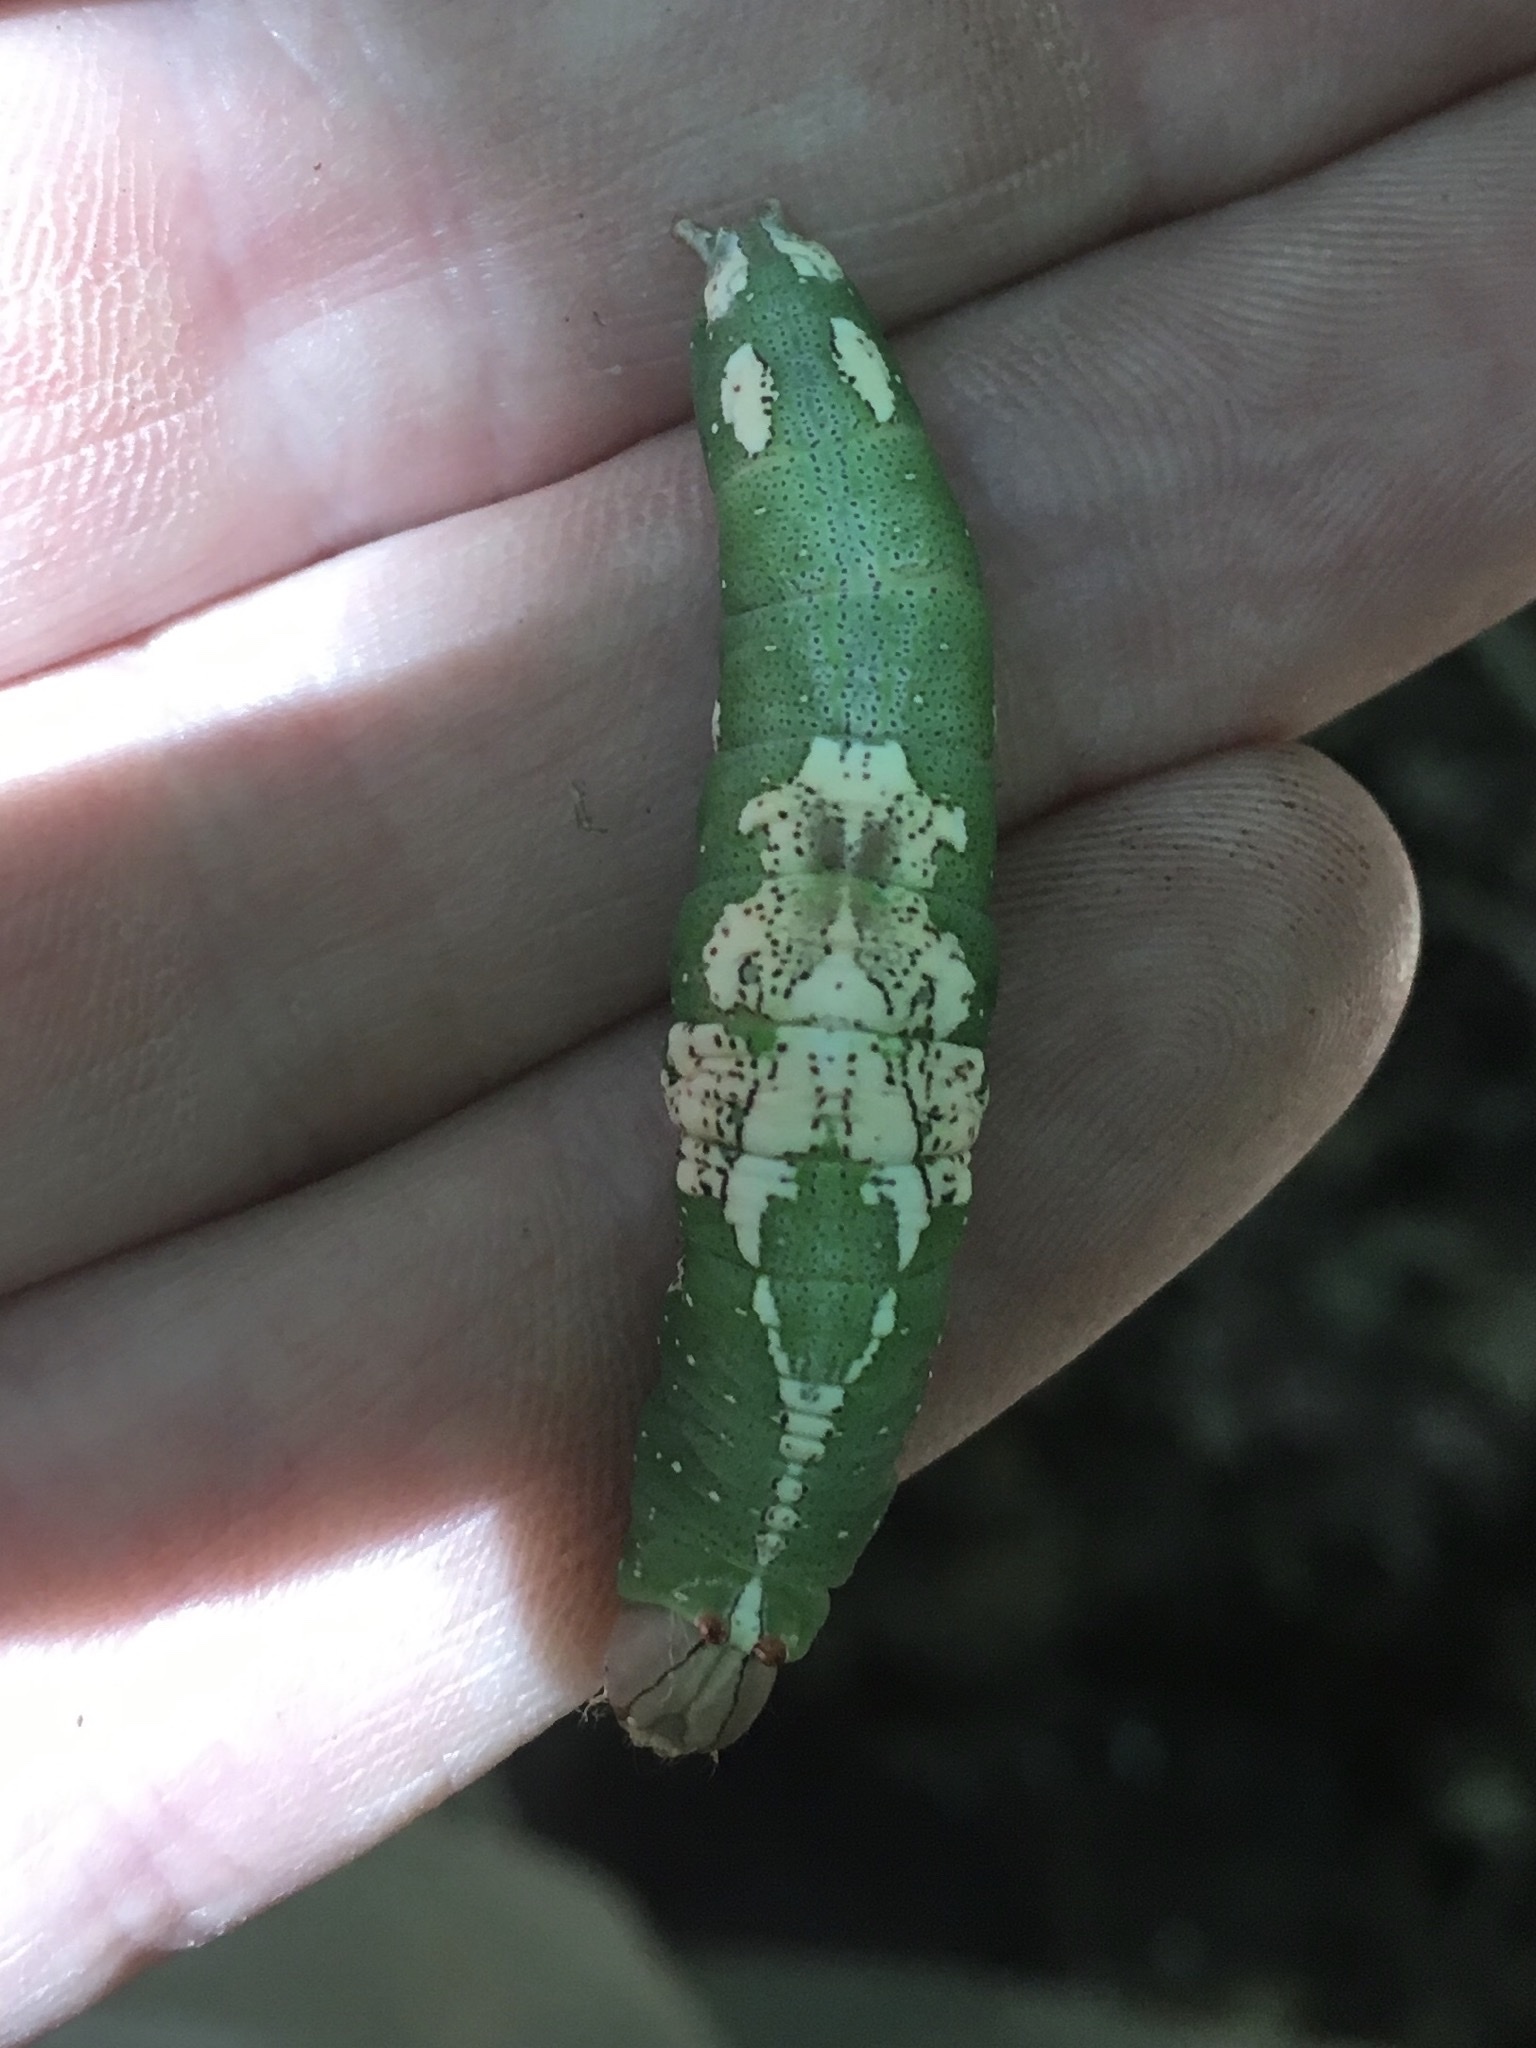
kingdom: Animalia
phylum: Arthropoda
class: Insecta
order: Lepidoptera
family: Notodontidae
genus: Heterocampa
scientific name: Heterocampa
